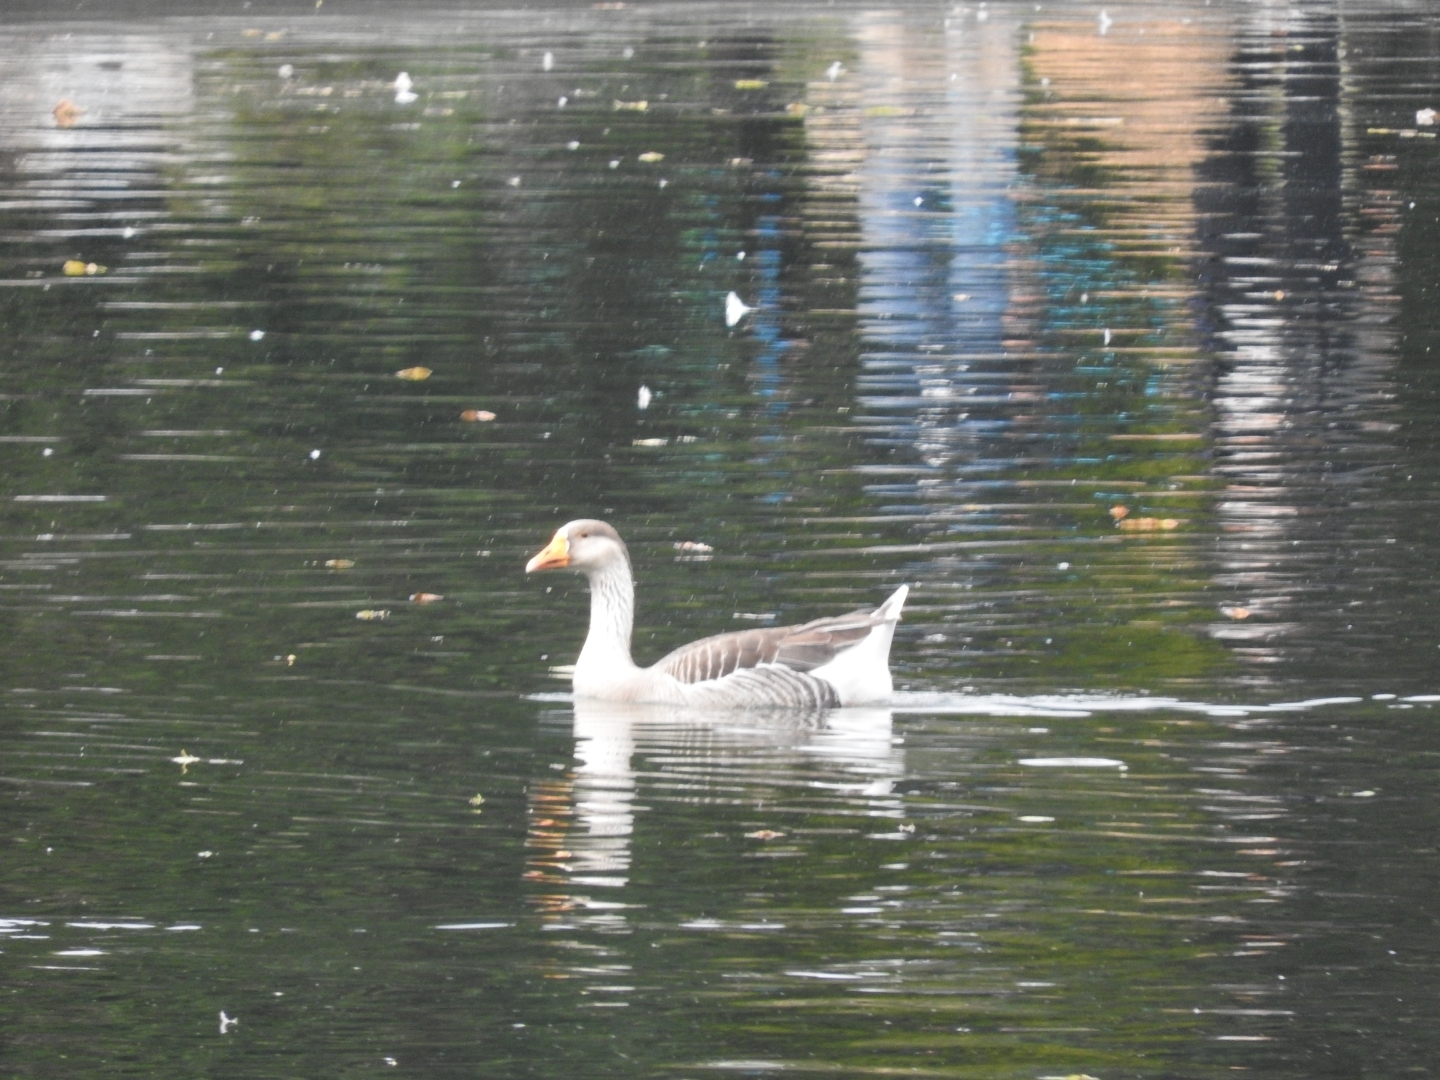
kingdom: Animalia
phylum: Chordata
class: Aves
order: Anseriformes
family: Anatidae
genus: Anser
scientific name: Anser
